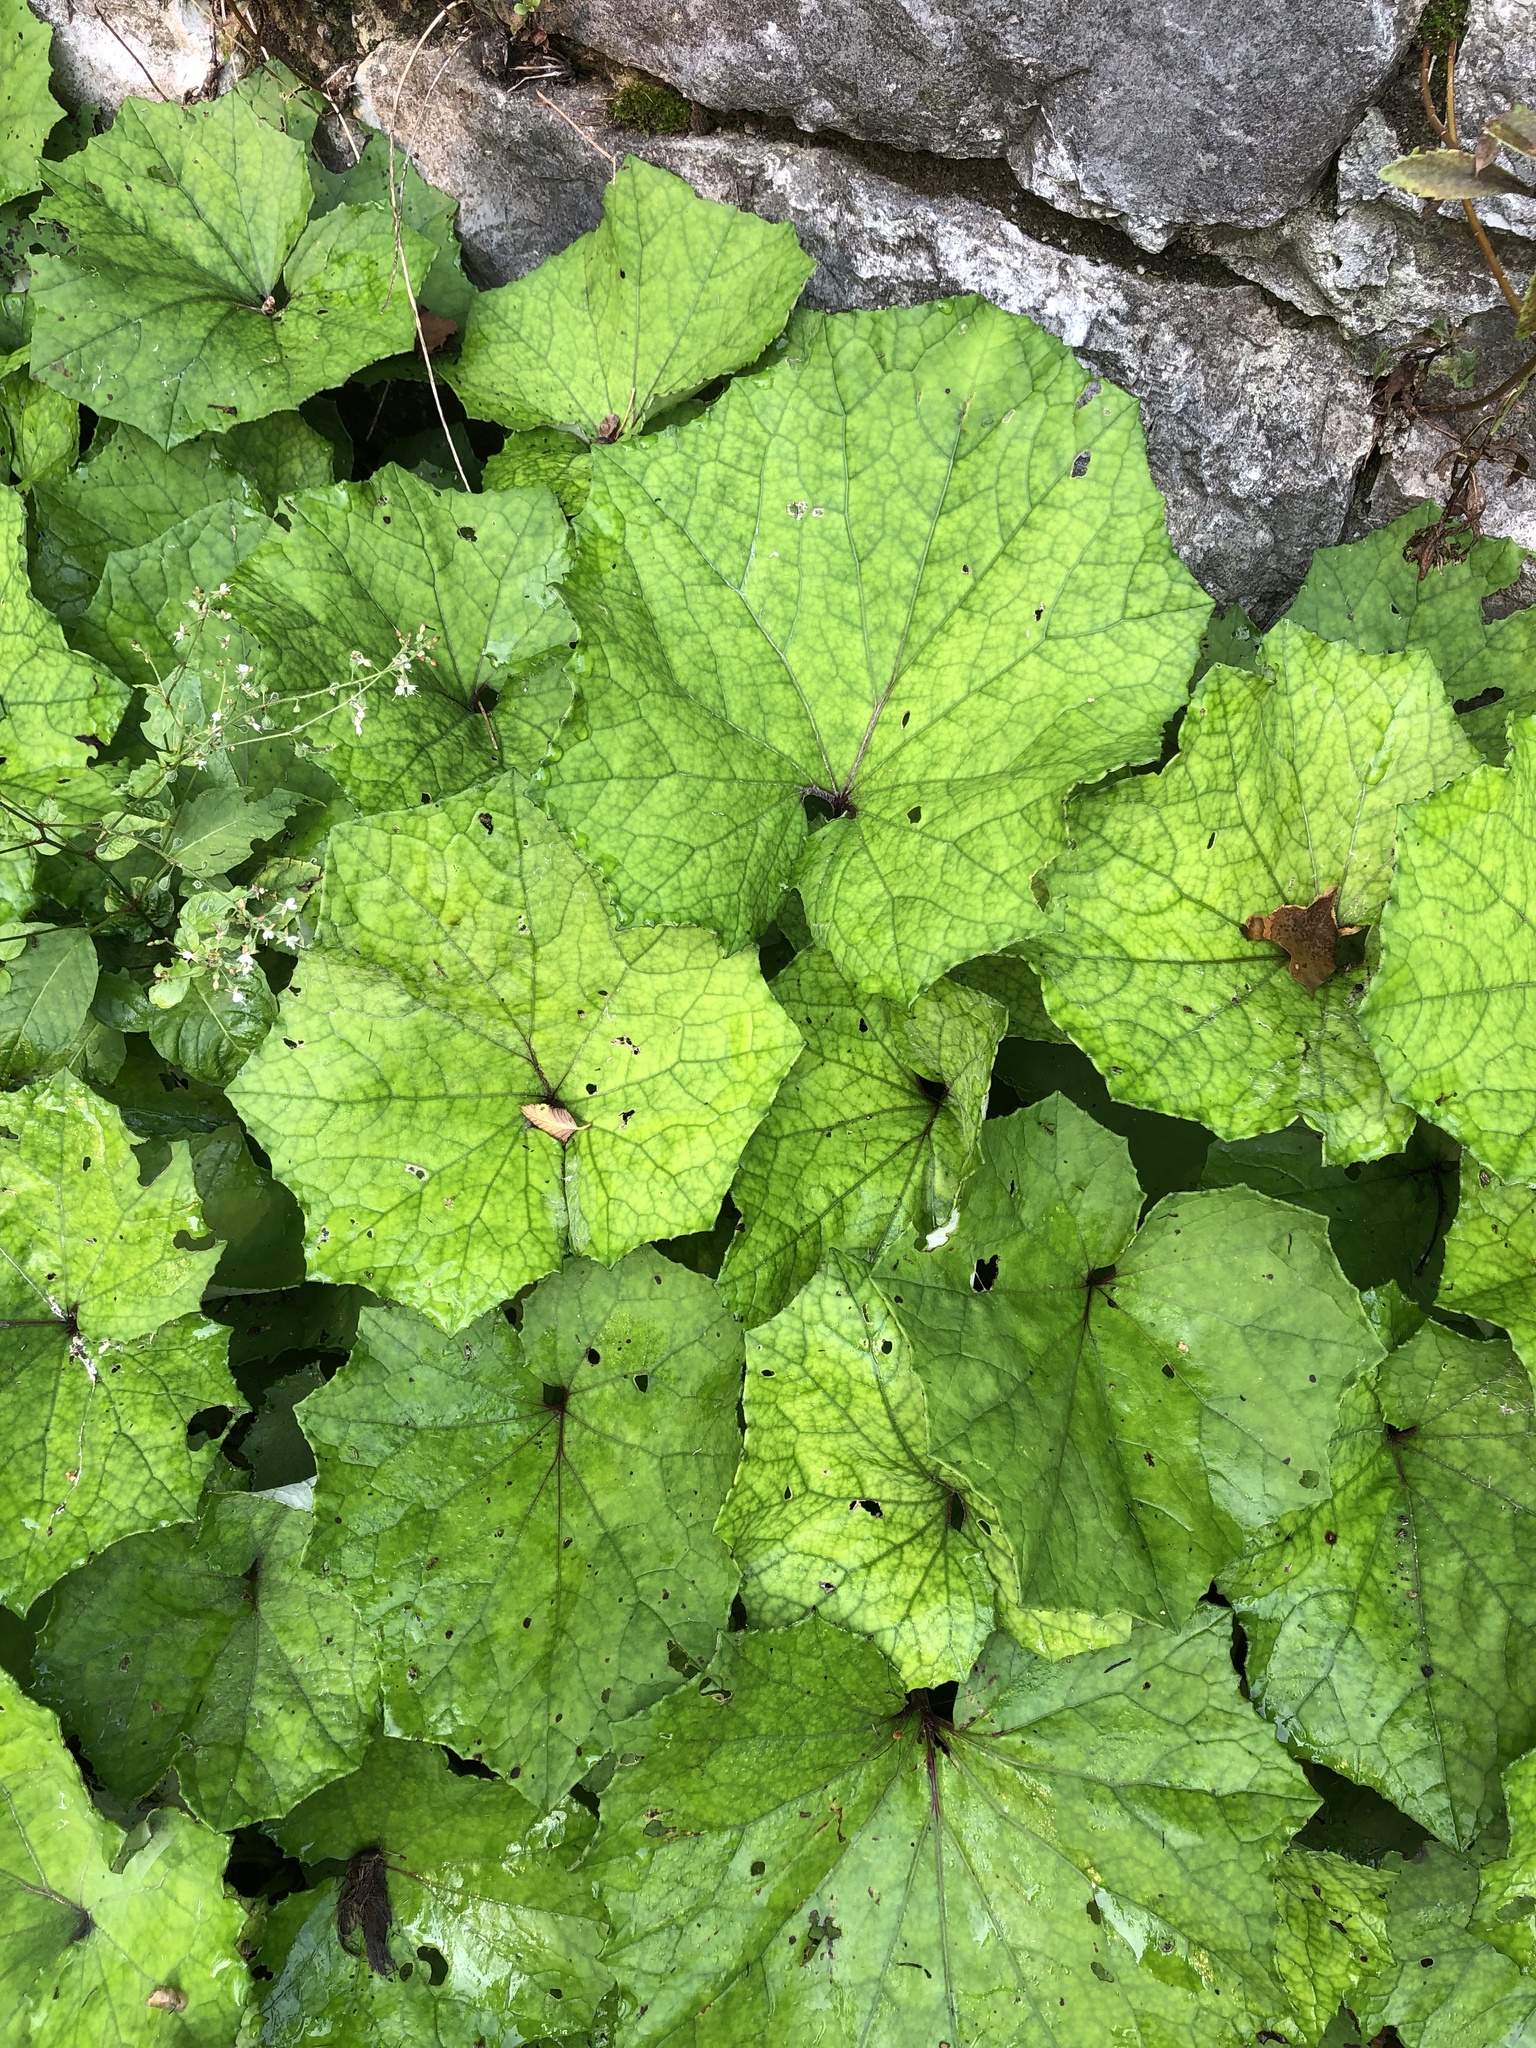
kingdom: Plantae
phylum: Tracheophyta
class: Magnoliopsida
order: Asterales
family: Asteraceae
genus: Tussilago
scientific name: Tussilago farfara
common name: Coltsfoot
